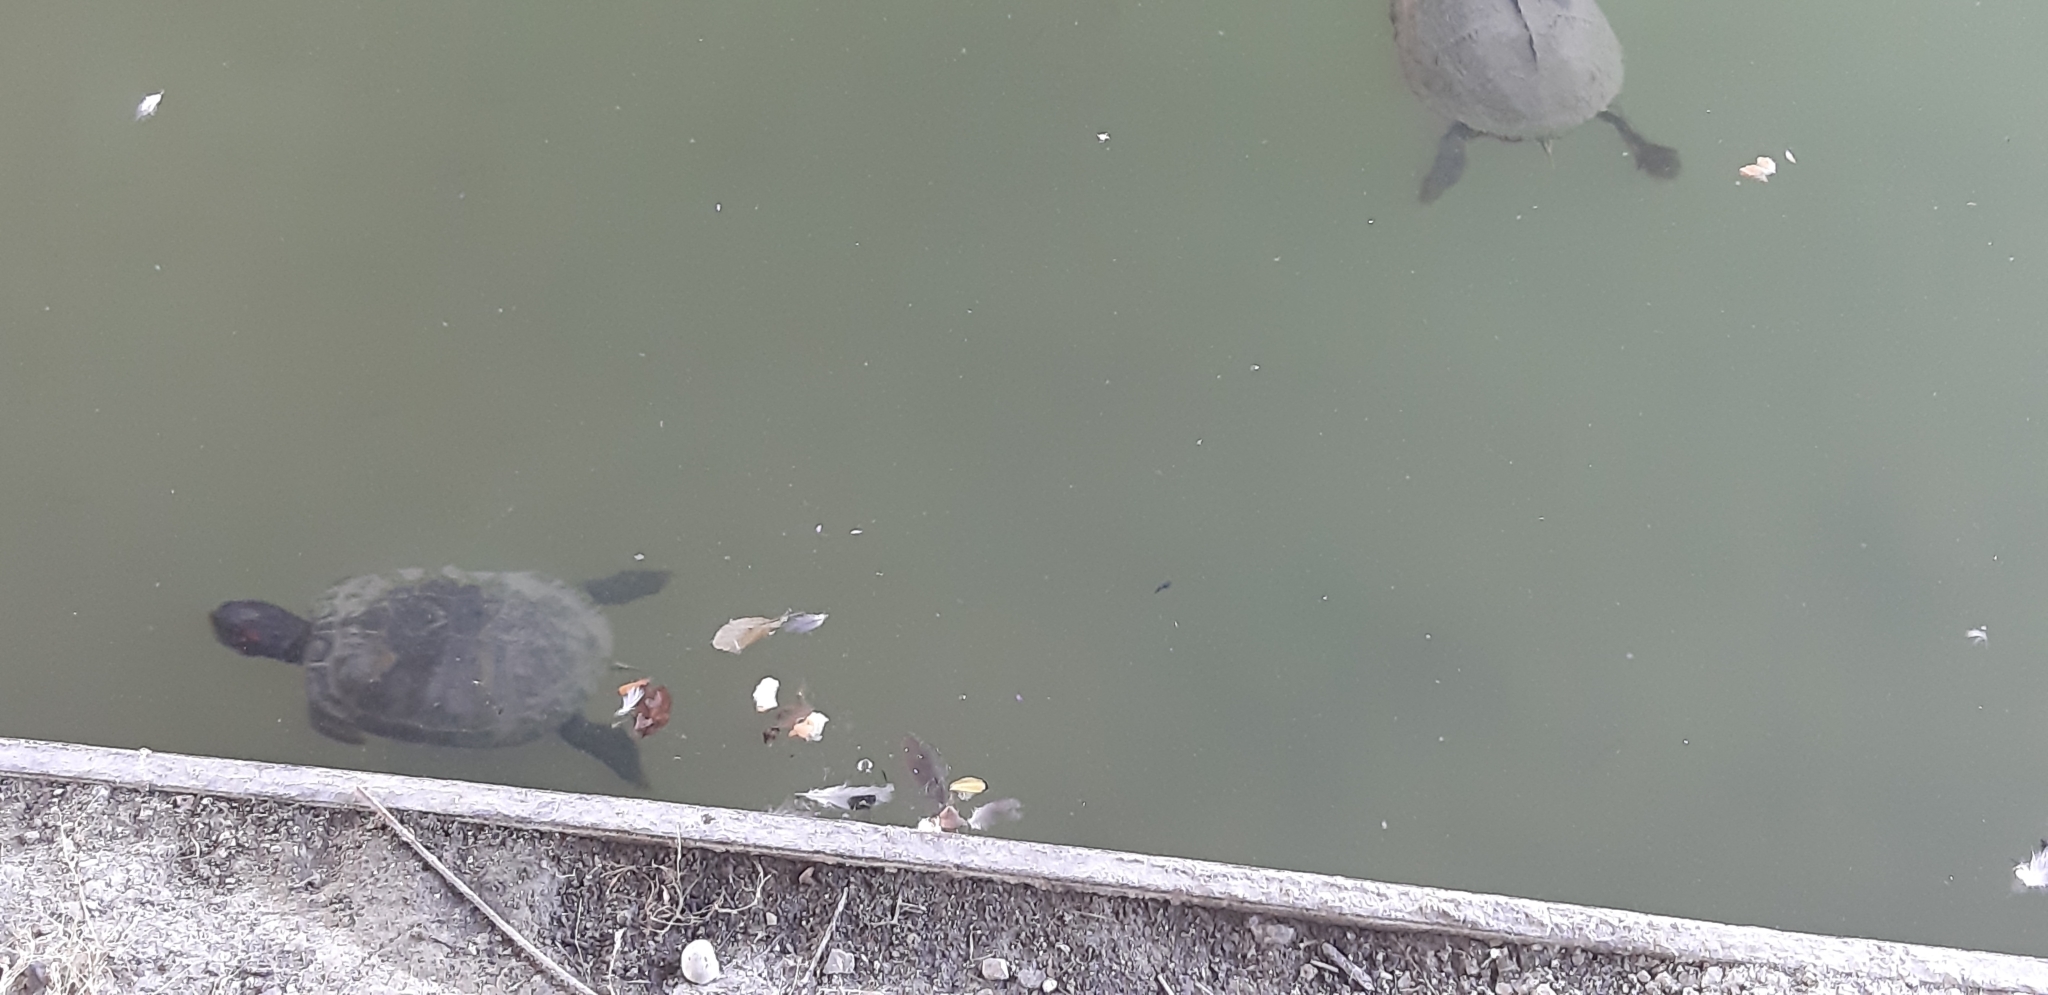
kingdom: Animalia
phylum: Chordata
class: Testudines
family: Emydidae
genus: Trachemys
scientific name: Trachemys scripta
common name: Slider
